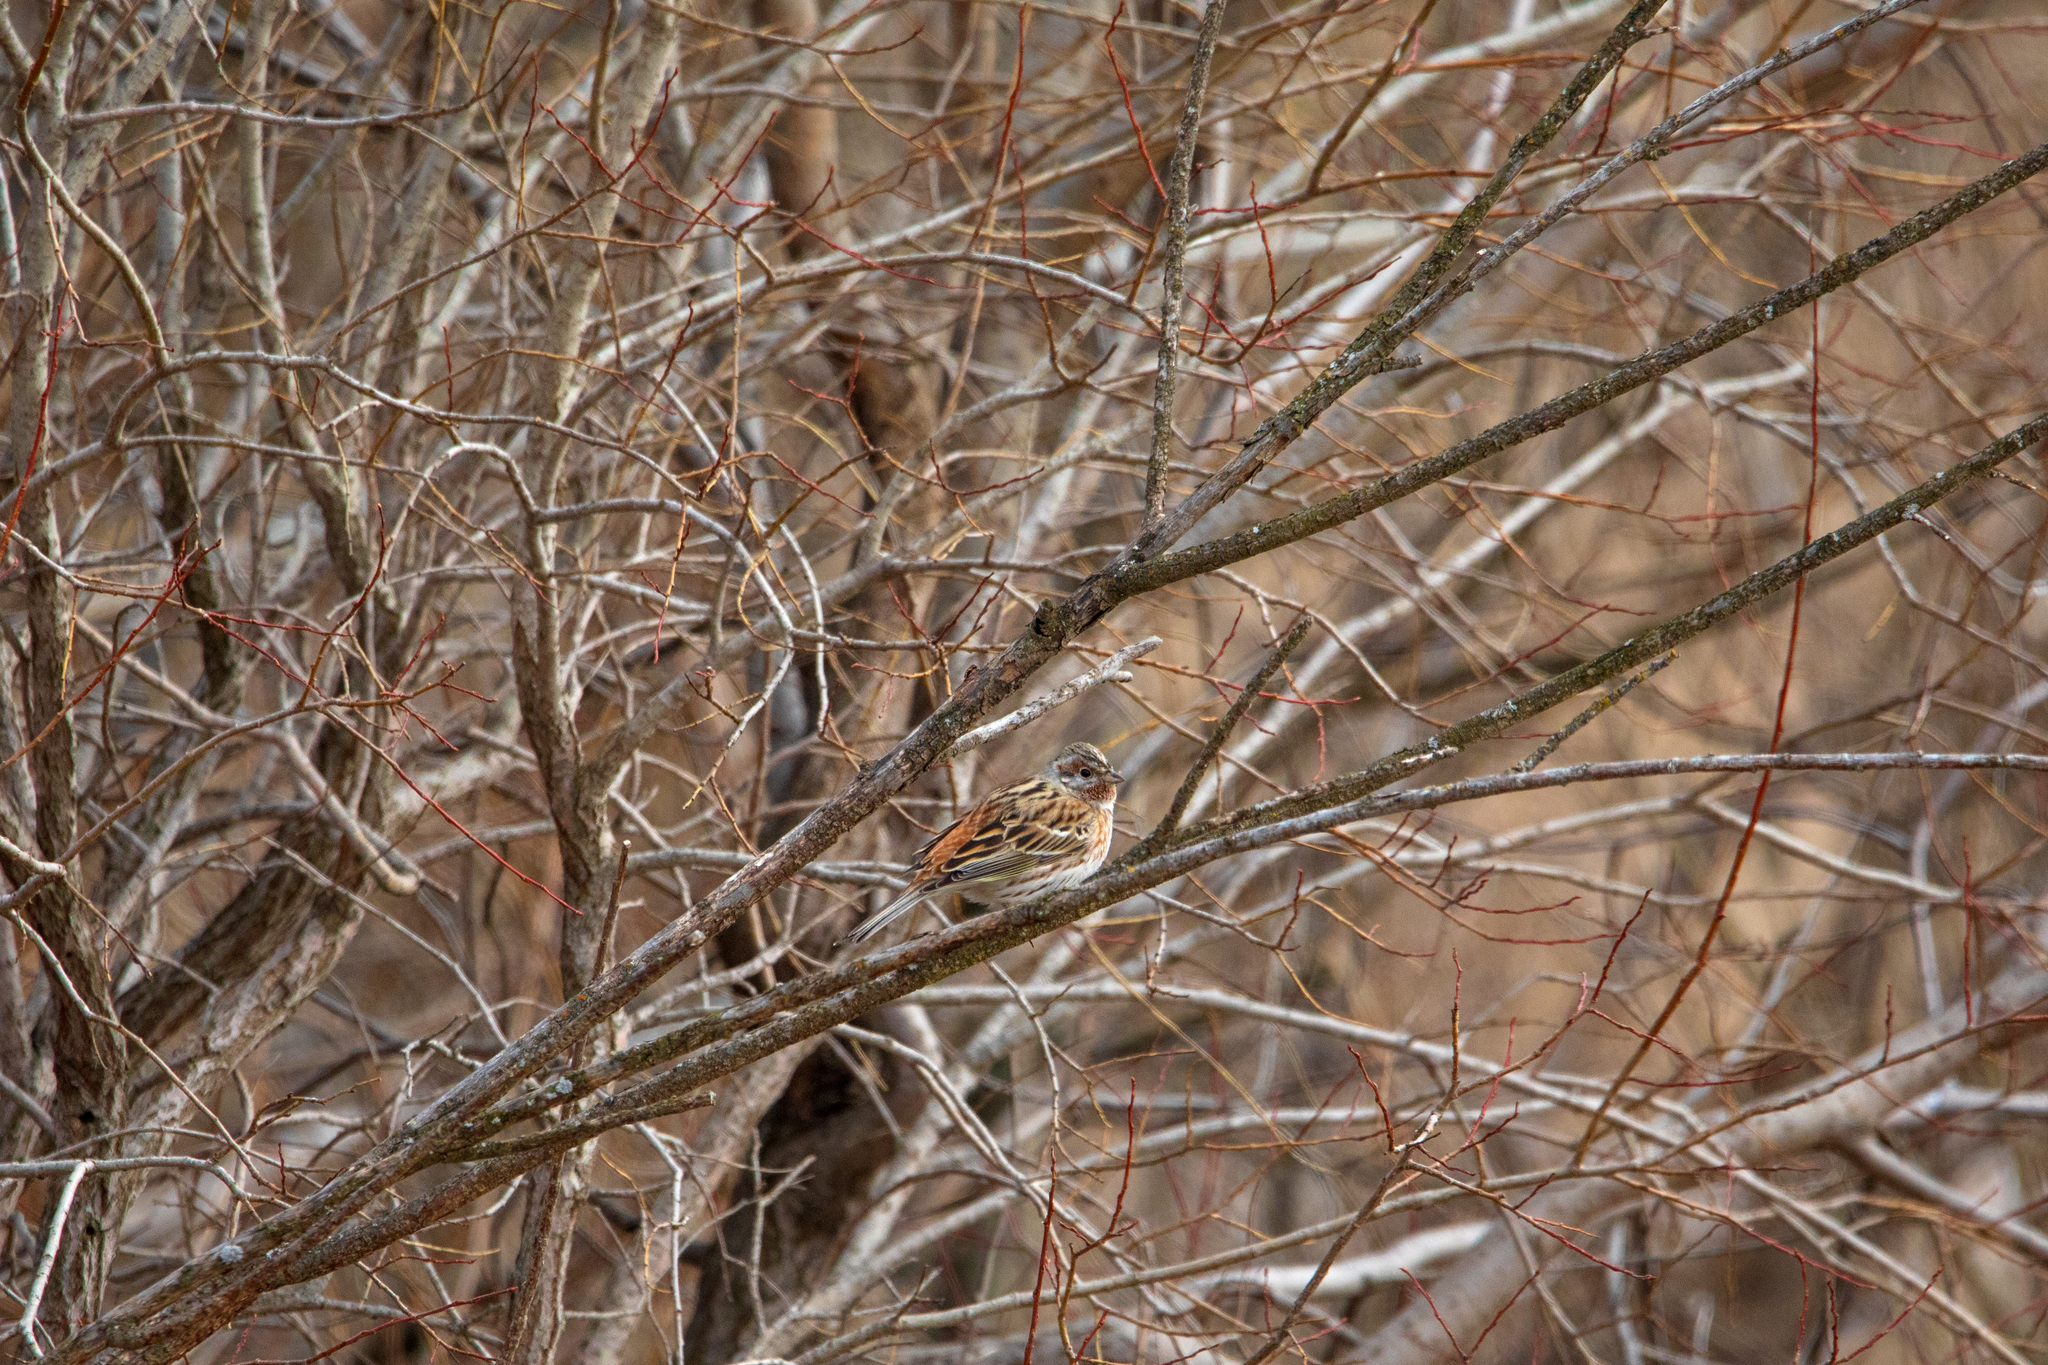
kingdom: Animalia
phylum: Chordata
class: Aves
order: Passeriformes
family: Emberizidae
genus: Emberiza
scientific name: Emberiza
